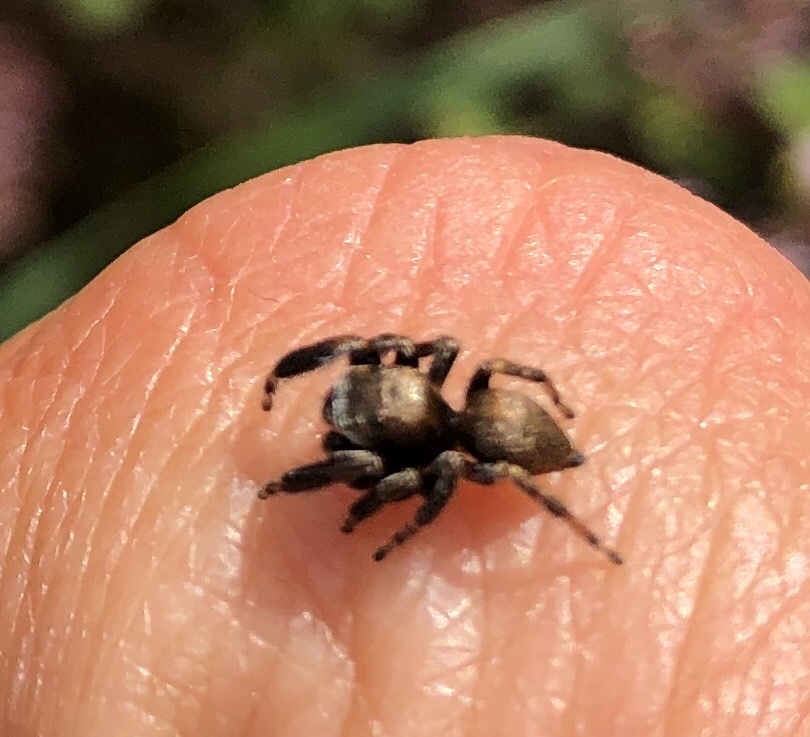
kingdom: Animalia
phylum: Arthropoda
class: Arachnida
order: Araneae
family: Salticidae
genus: Evarcha
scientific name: Evarcha arcuata
